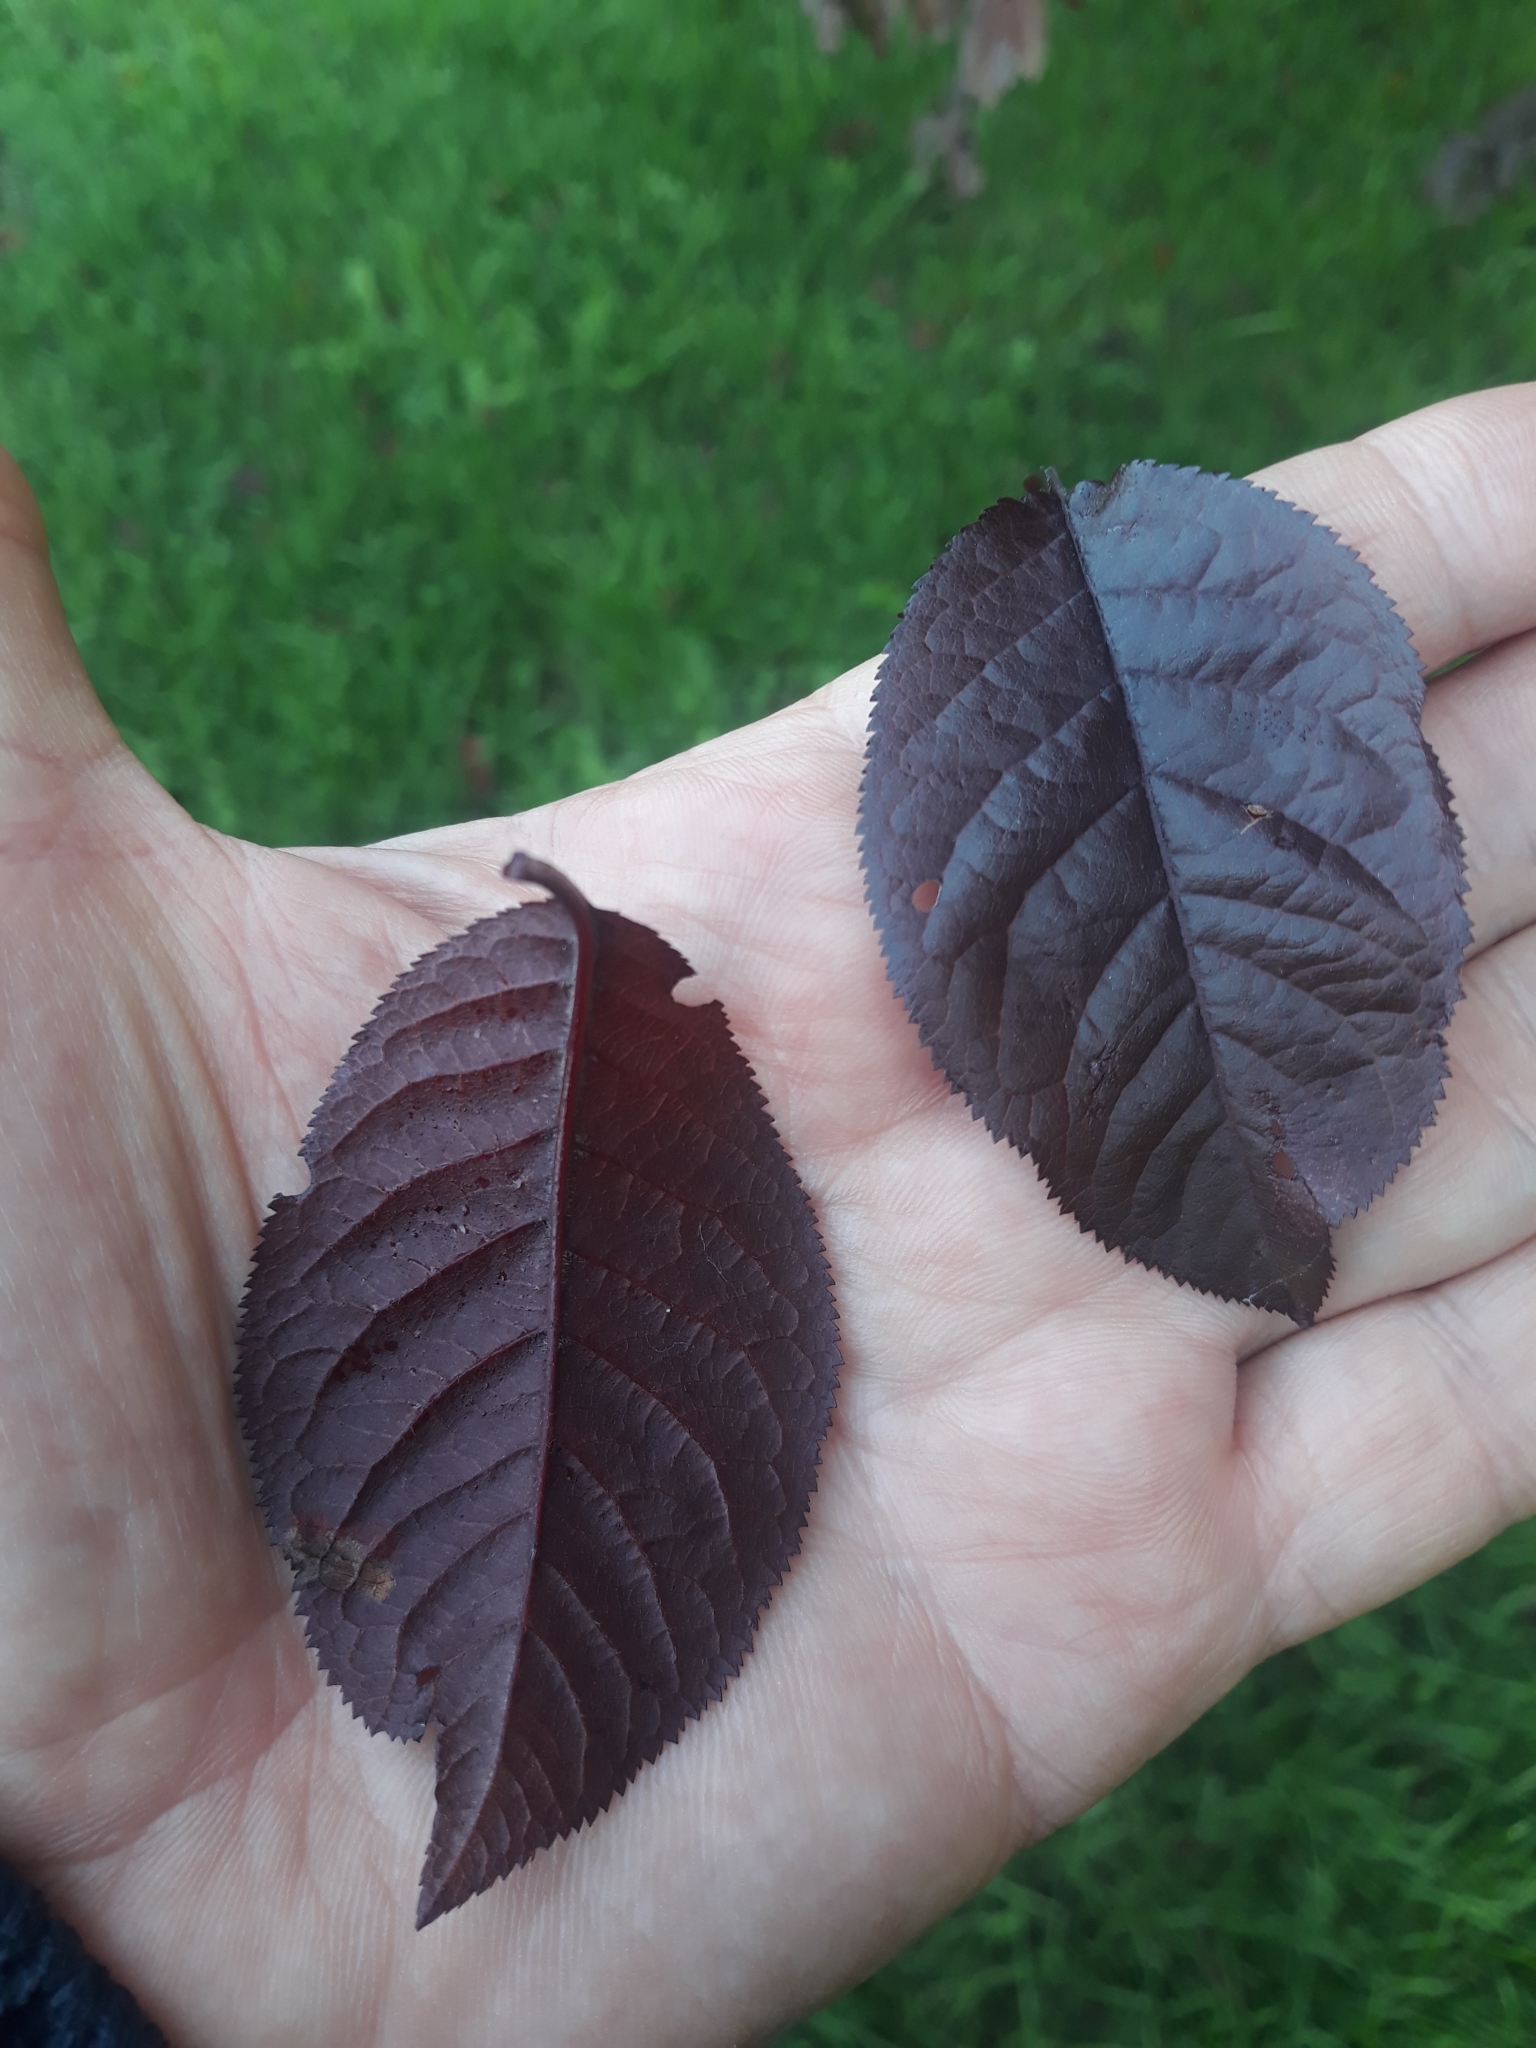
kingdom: Plantae
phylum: Tracheophyta
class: Magnoliopsida
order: Rosales
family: Rosaceae
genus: Prunus
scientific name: Prunus cerasifera
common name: Cherry plum
